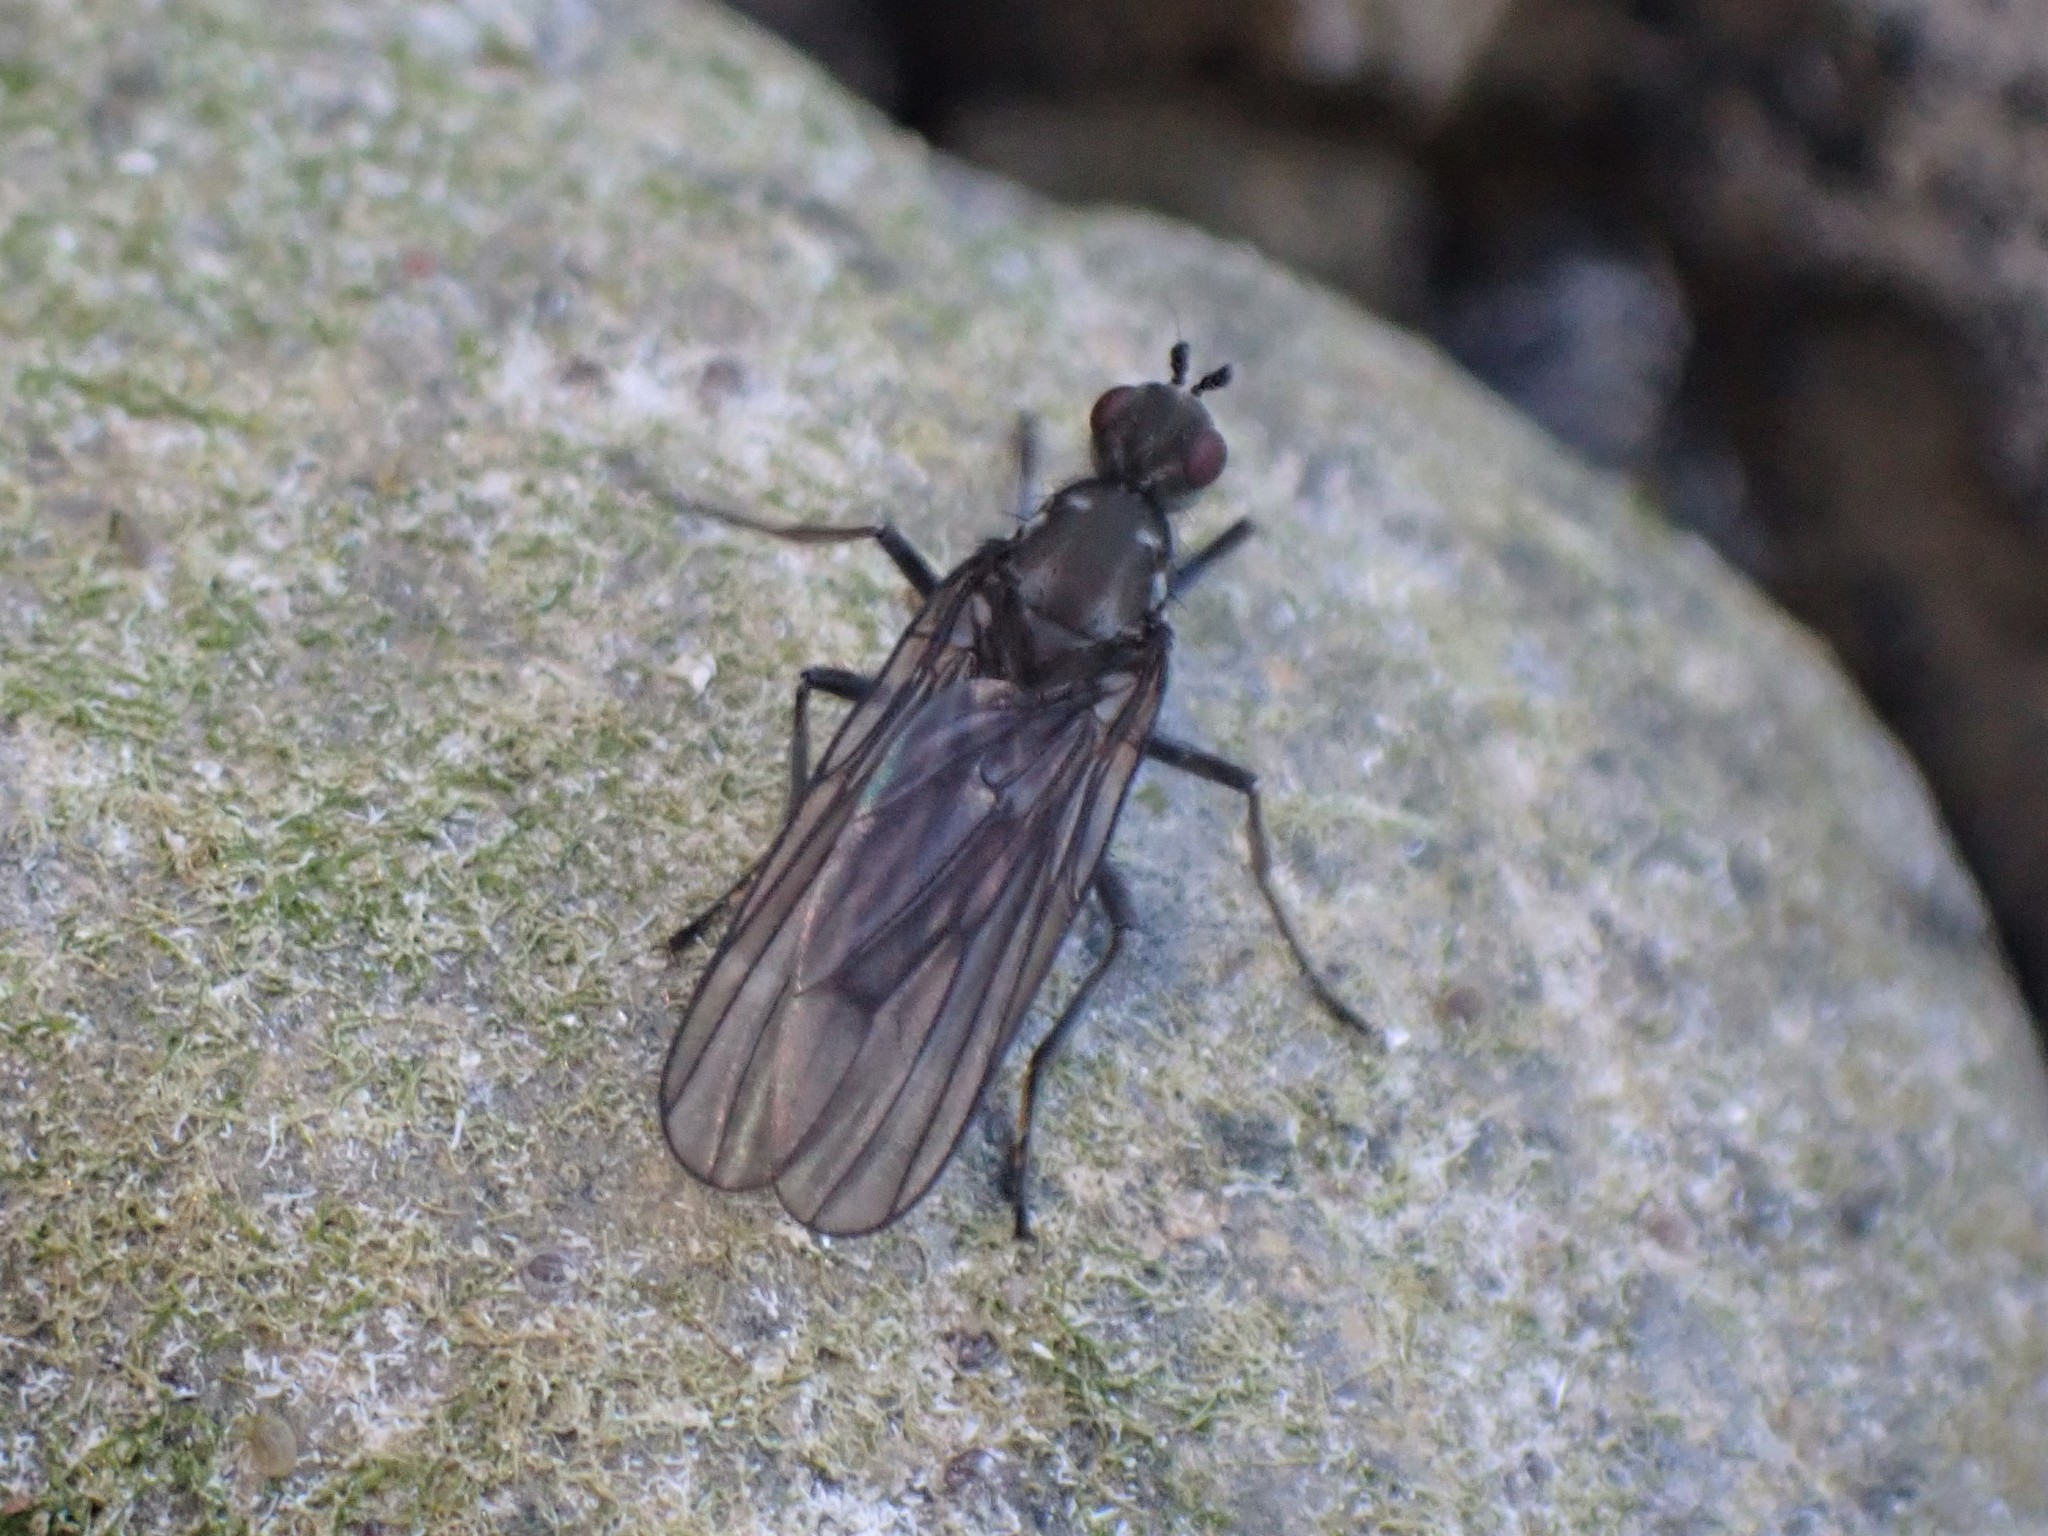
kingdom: Animalia
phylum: Arthropoda
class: Insecta
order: Diptera
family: Dryomyzidae
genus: Oedoparena
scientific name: Oedoparena glauca
